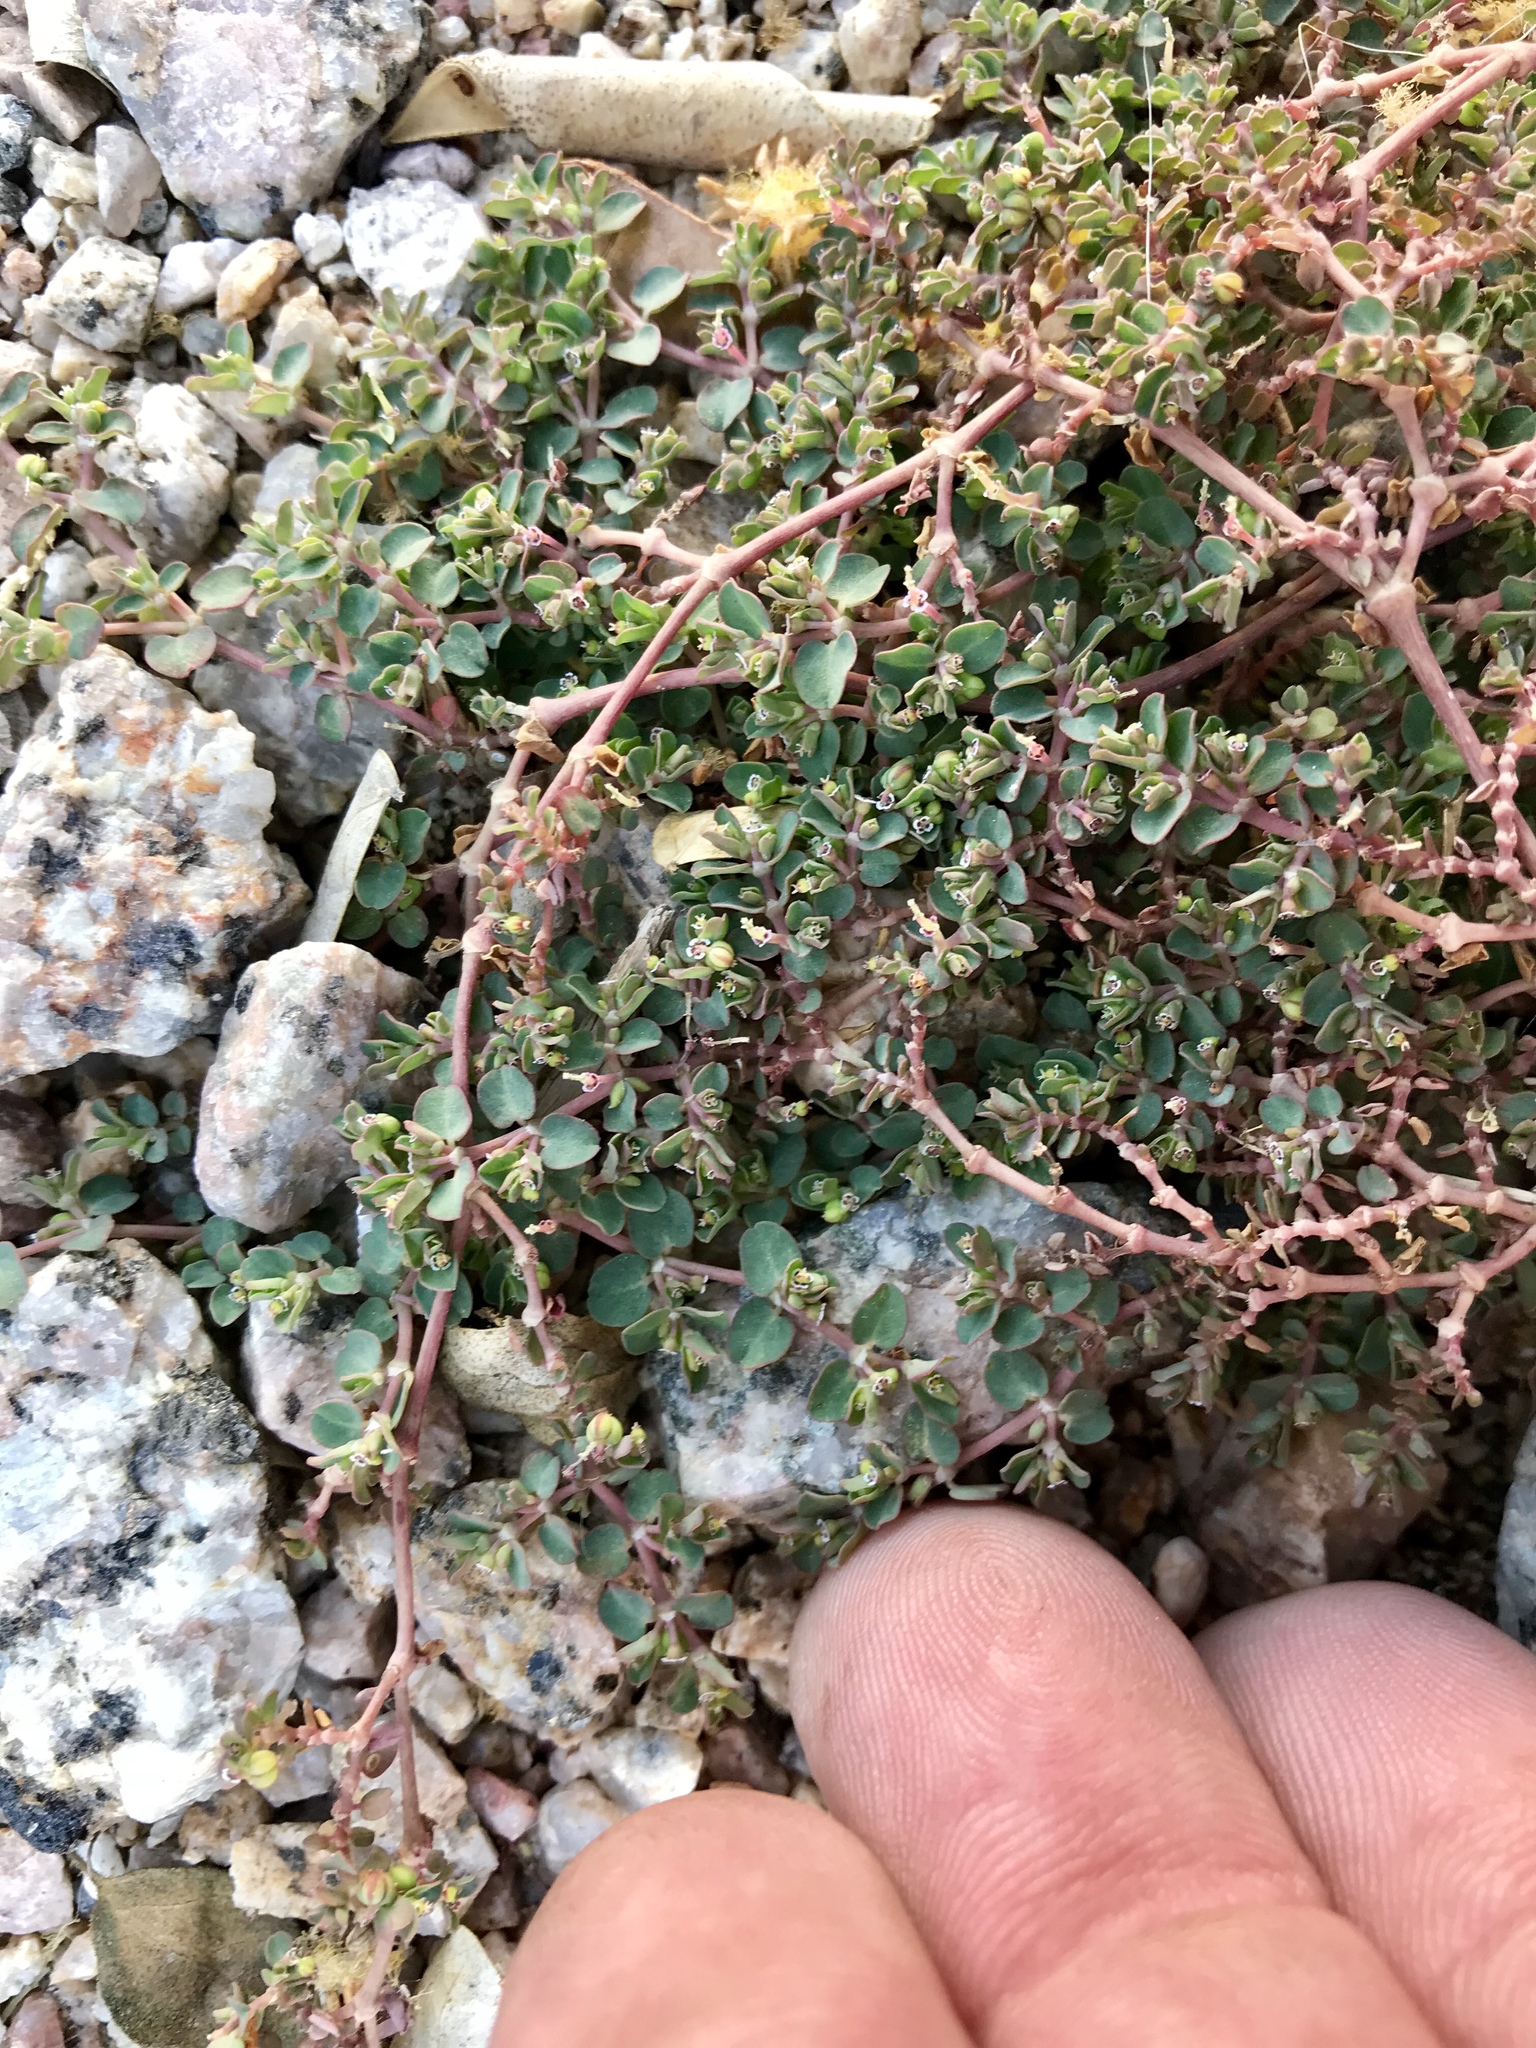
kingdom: Plantae
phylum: Tracheophyta
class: Magnoliopsida
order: Malpighiales
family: Euphorbiaceae
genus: Euphorbia
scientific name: Euphorbia serpens
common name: Matted sandmat
